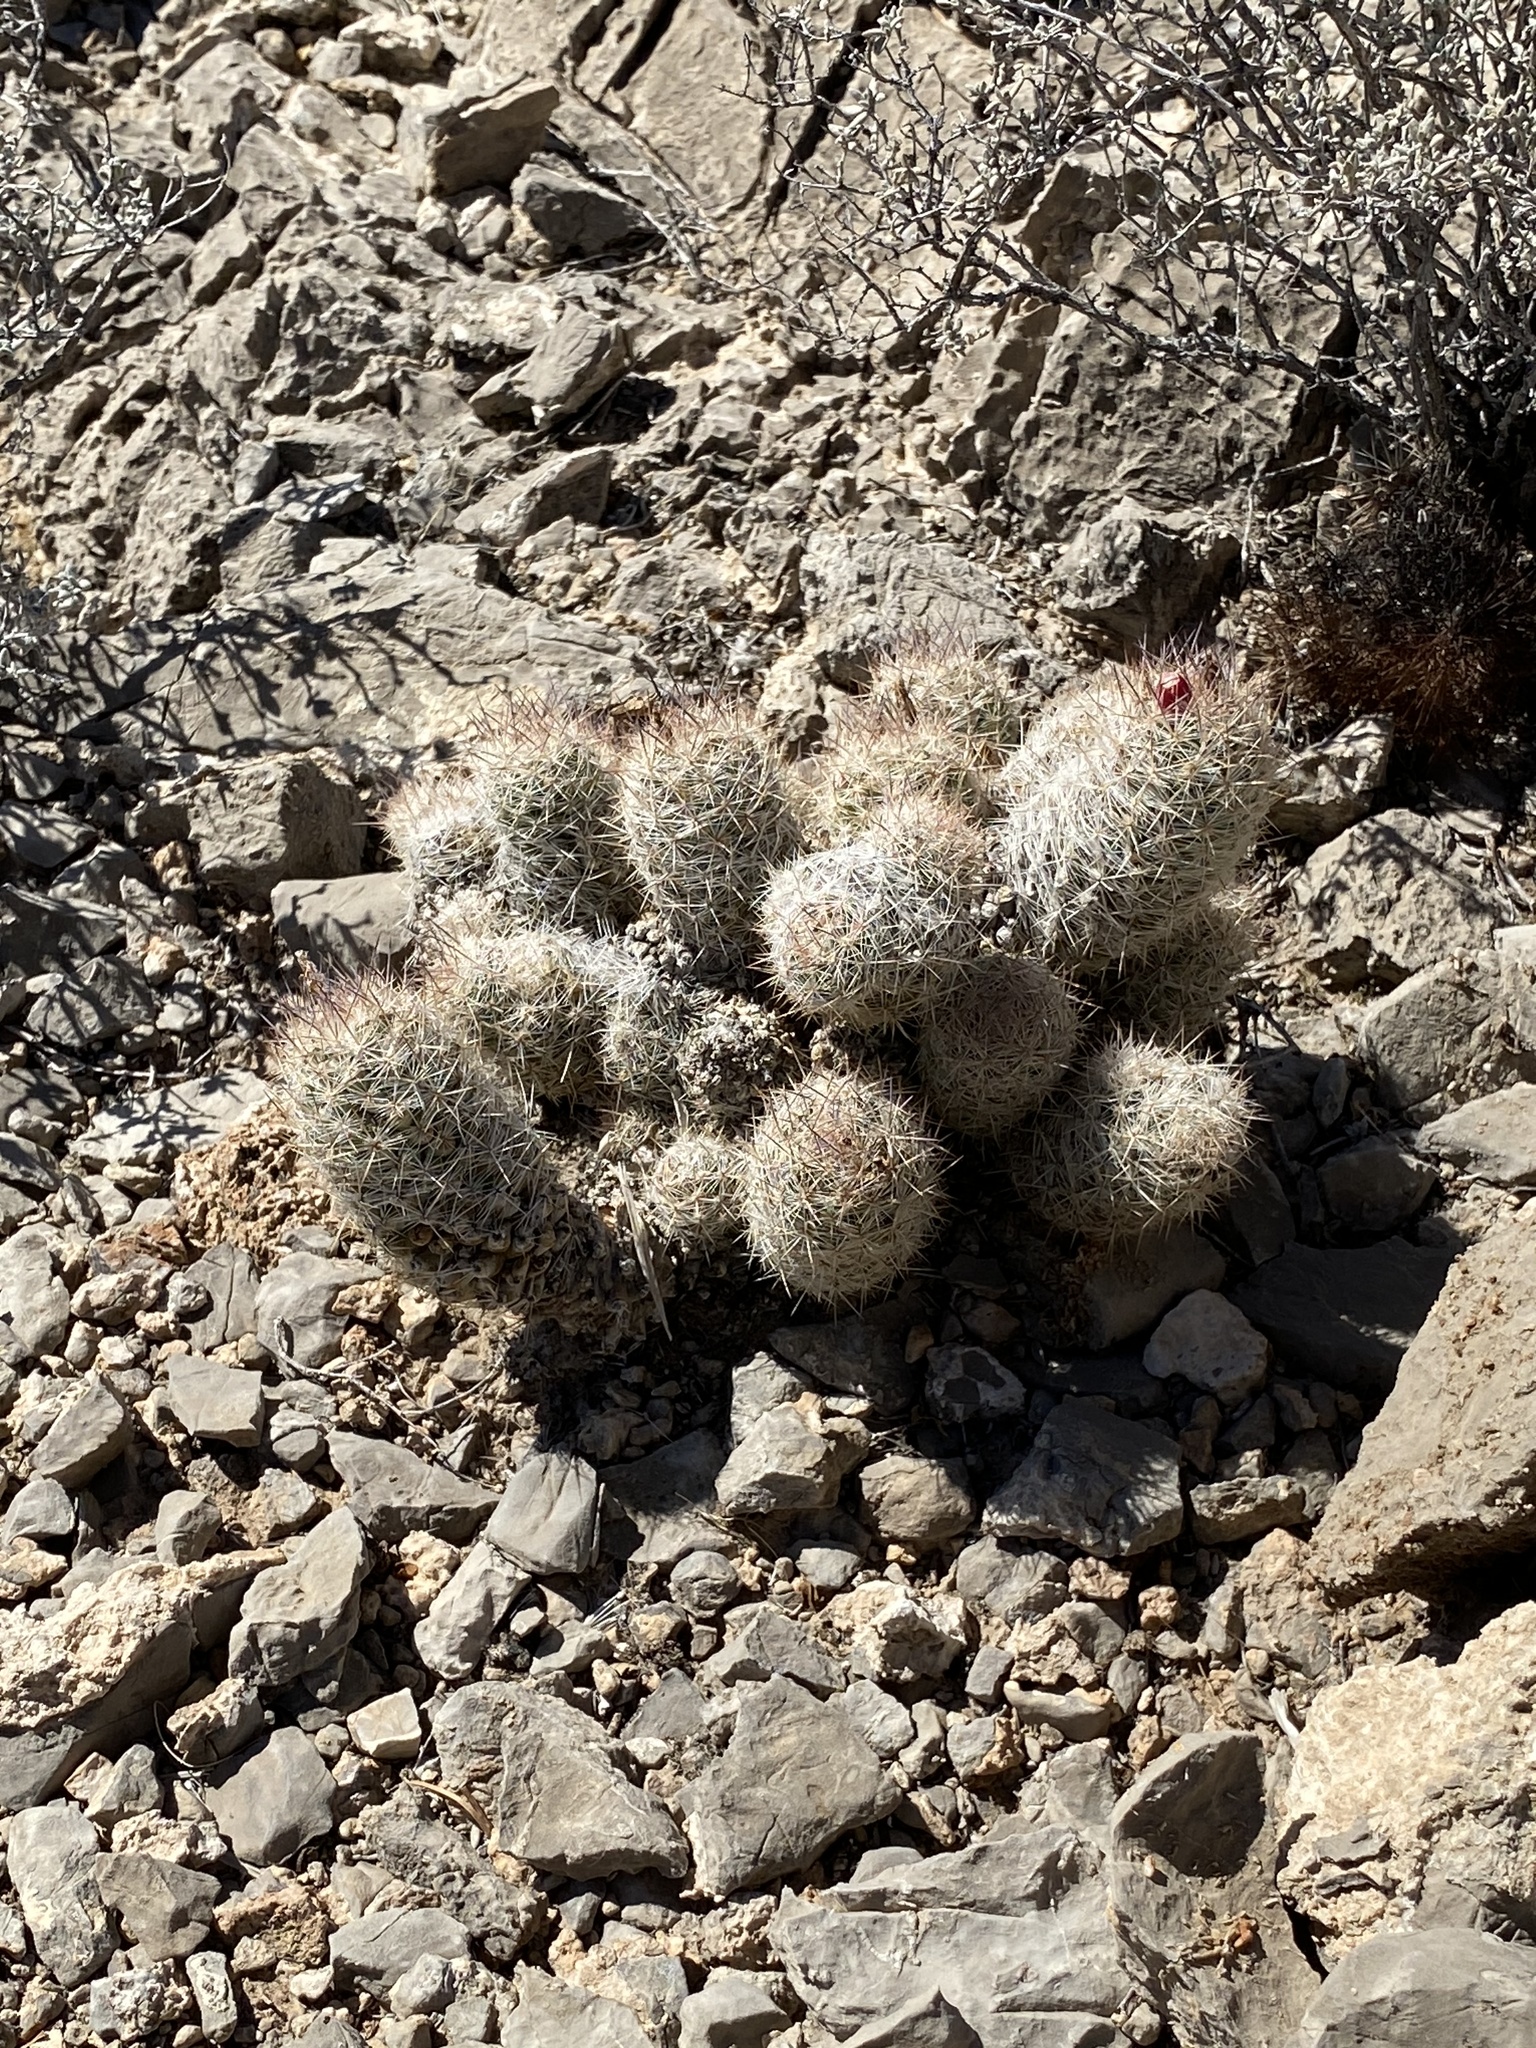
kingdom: Plantae
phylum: Tracheophyta
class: Magnoliopsida
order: Caryophyllales
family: Cactaceae
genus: Pelecyphora
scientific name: Pelecyphora tuberculosa
